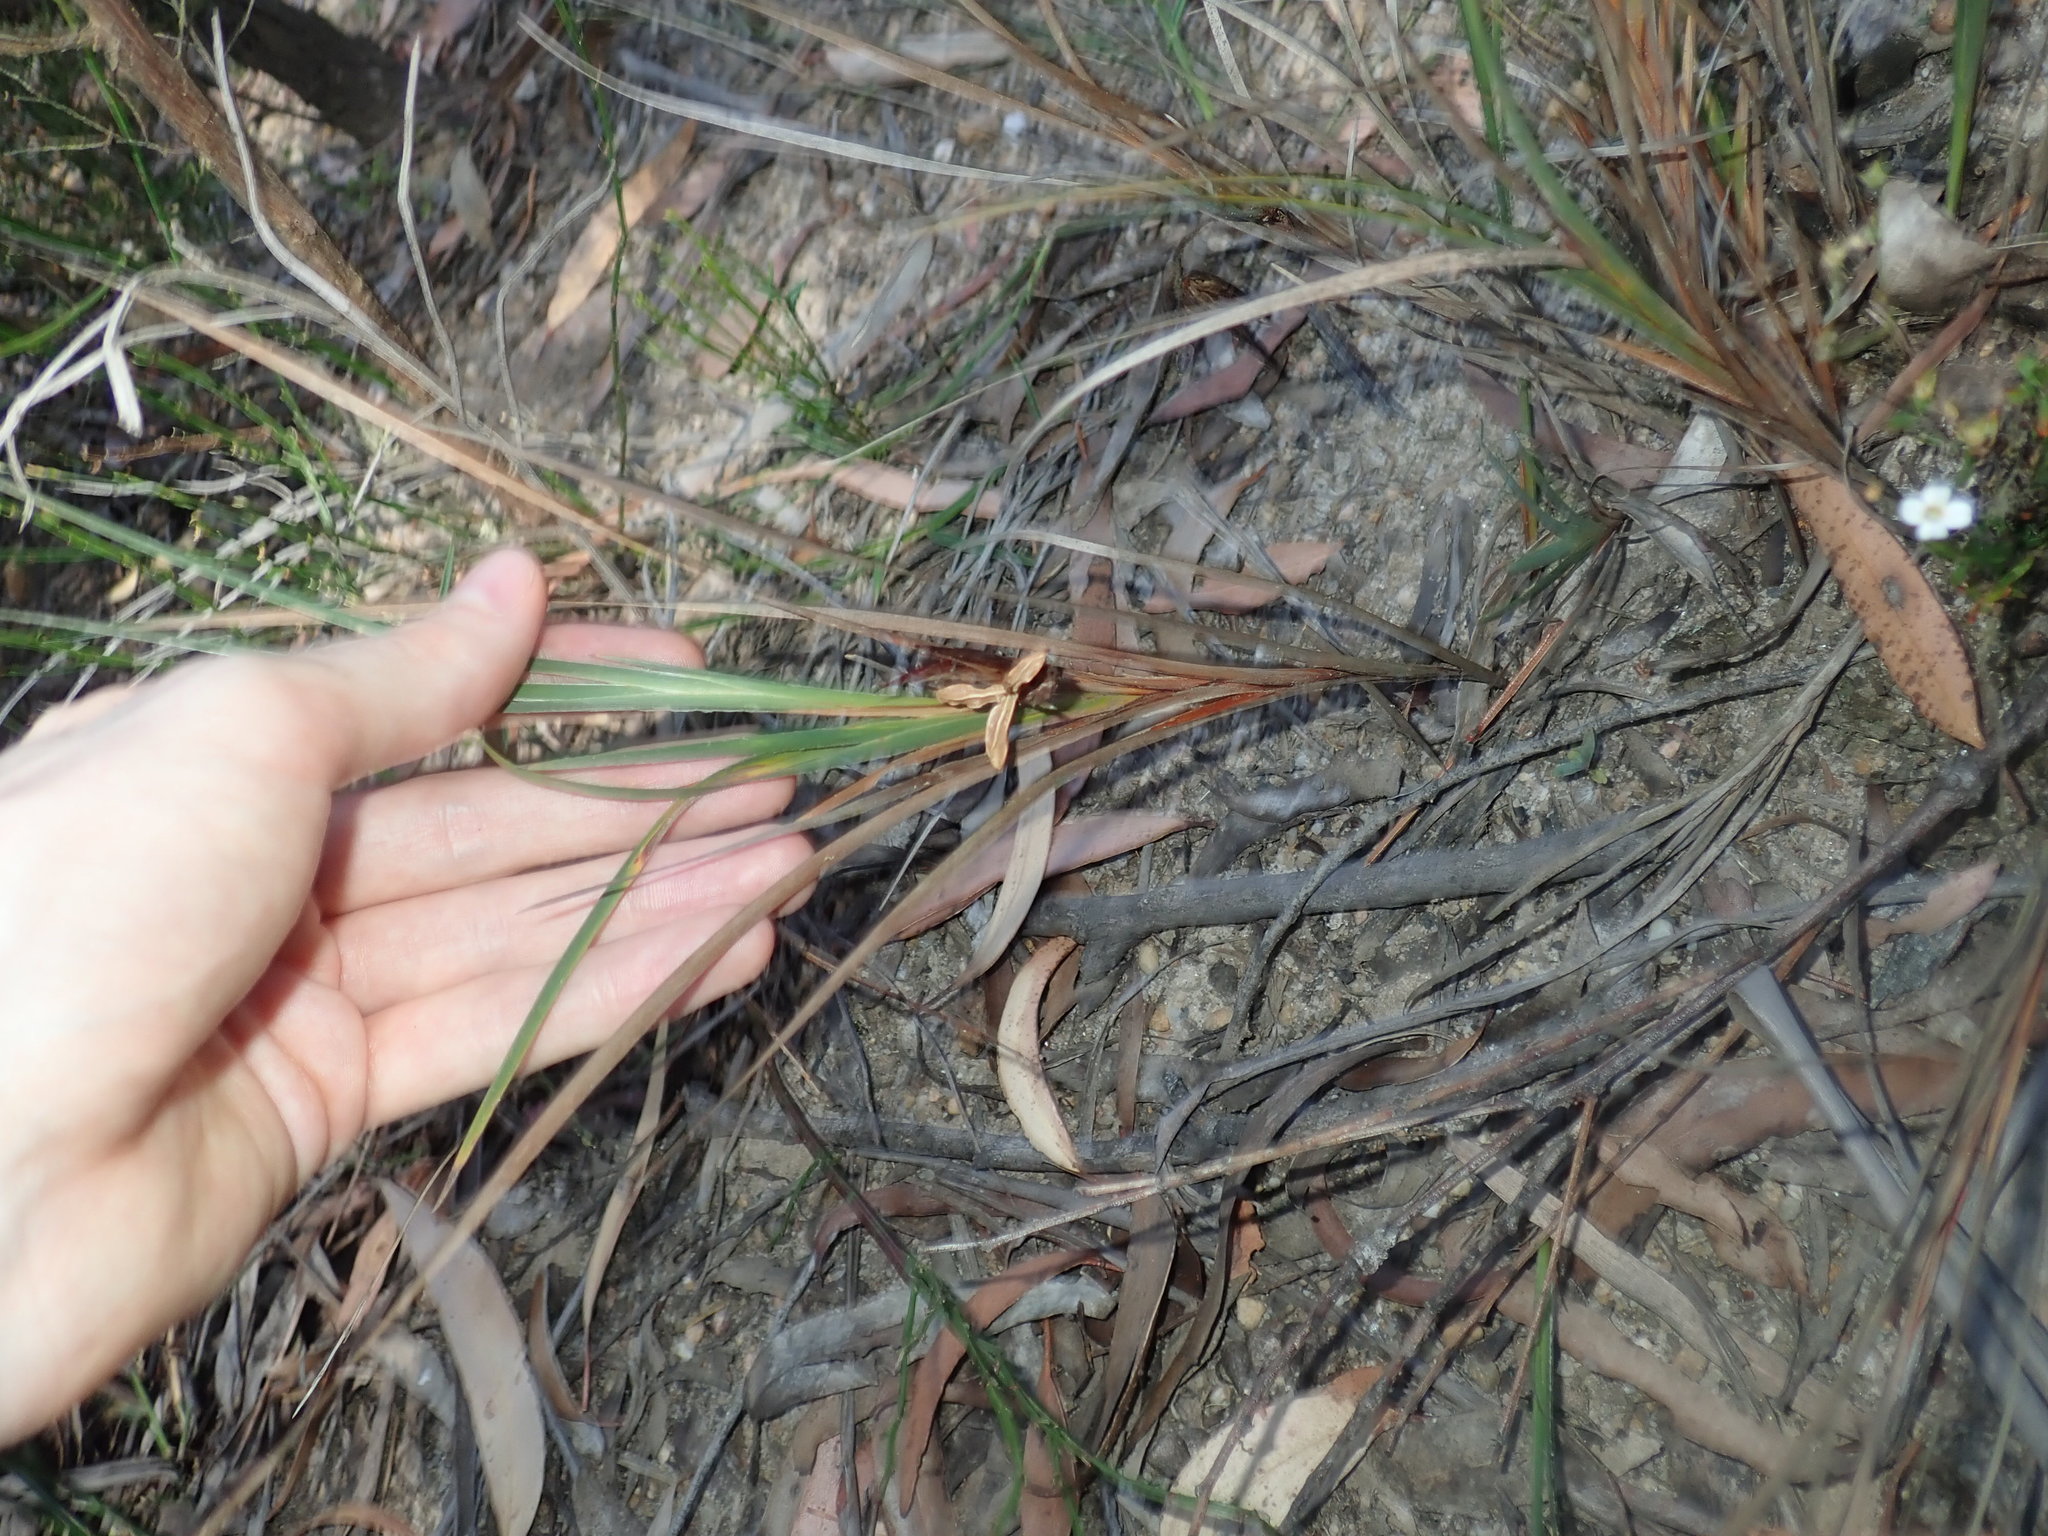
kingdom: Plantae
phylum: Tracheophyta
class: Liliopsida
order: Asparagales
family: Iridaceae
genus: Patersonia
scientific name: Patersonia glabrata
